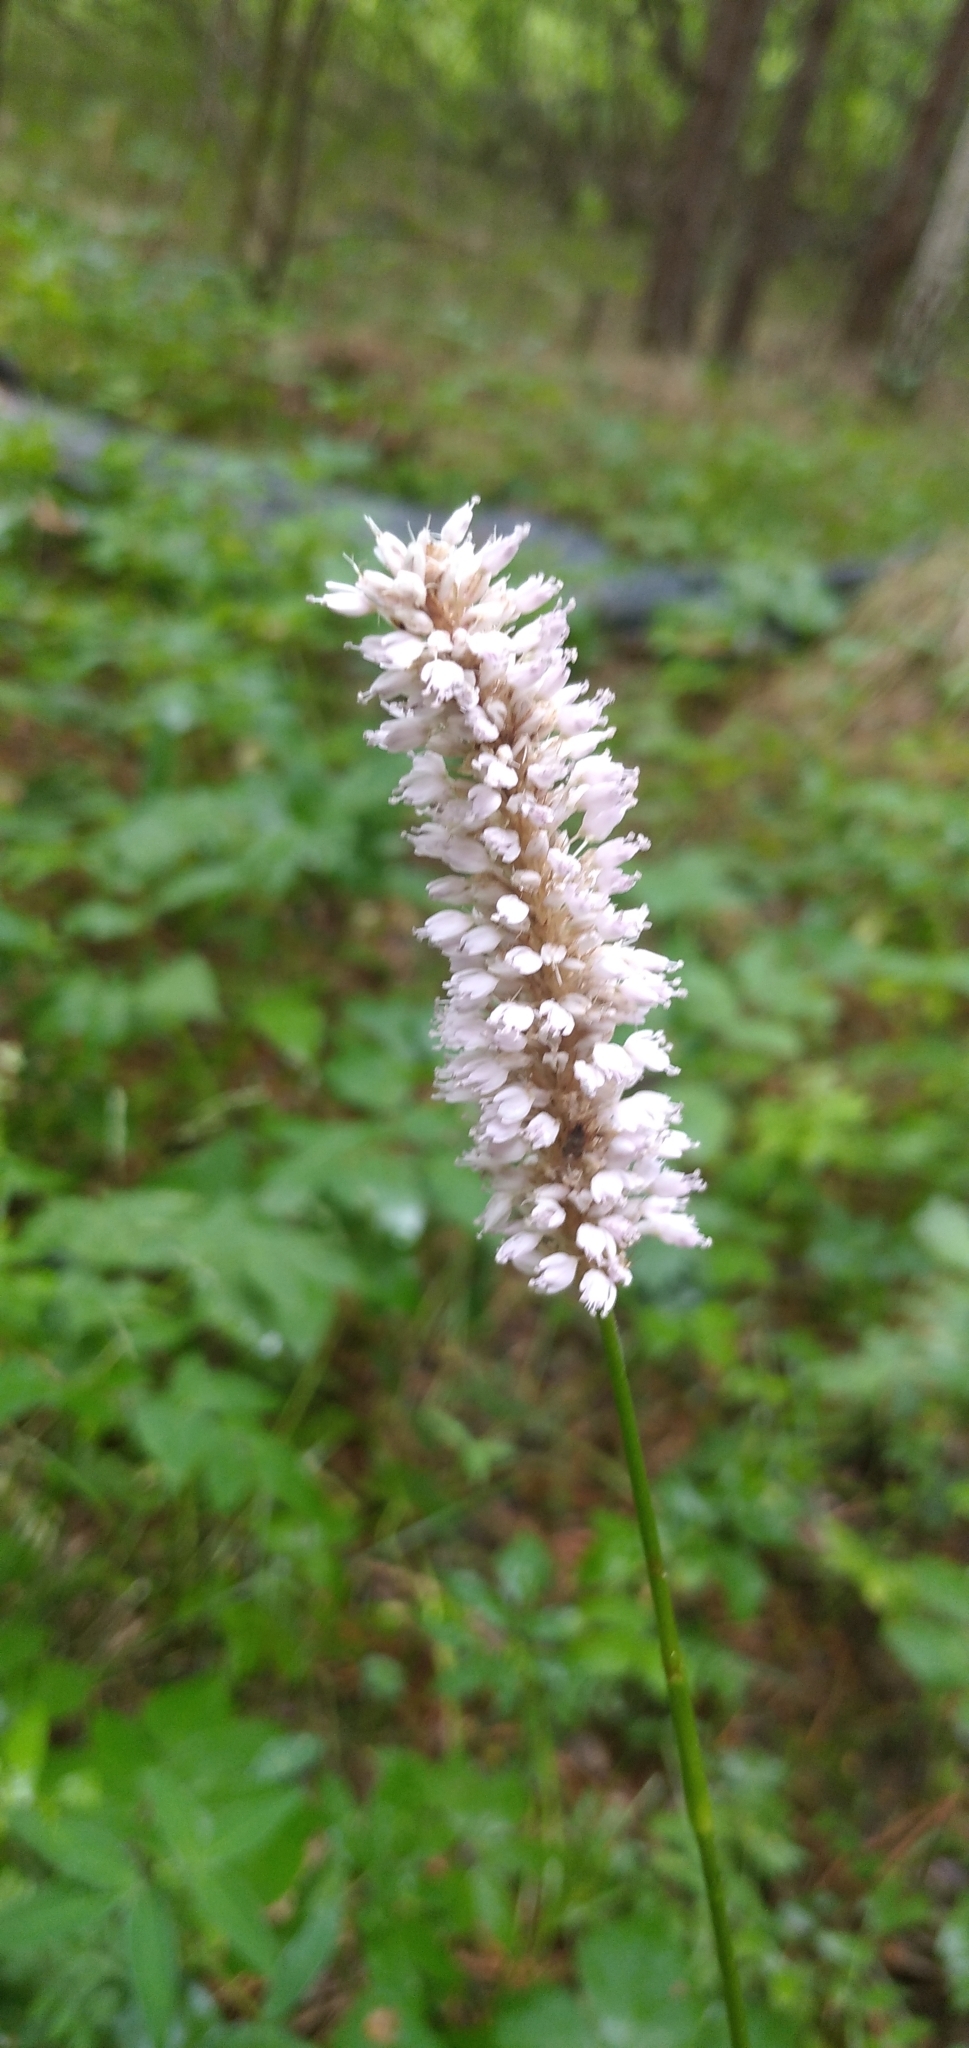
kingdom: Plantae
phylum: Tracheophyta
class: Magnoliopsida
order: Caryophyllales
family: Polygonaceae
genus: Bistorta
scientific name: Bistorta officinalis
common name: Common bistort
